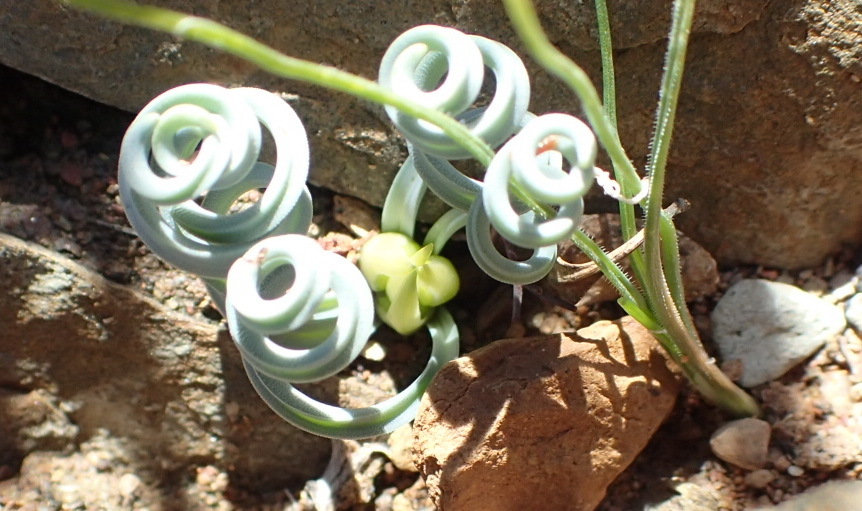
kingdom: Plantae
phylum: Tracheophyta
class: Liliopsida
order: Asparagales
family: Asparagaceae
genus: Albuca
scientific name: Albuca concordiana
